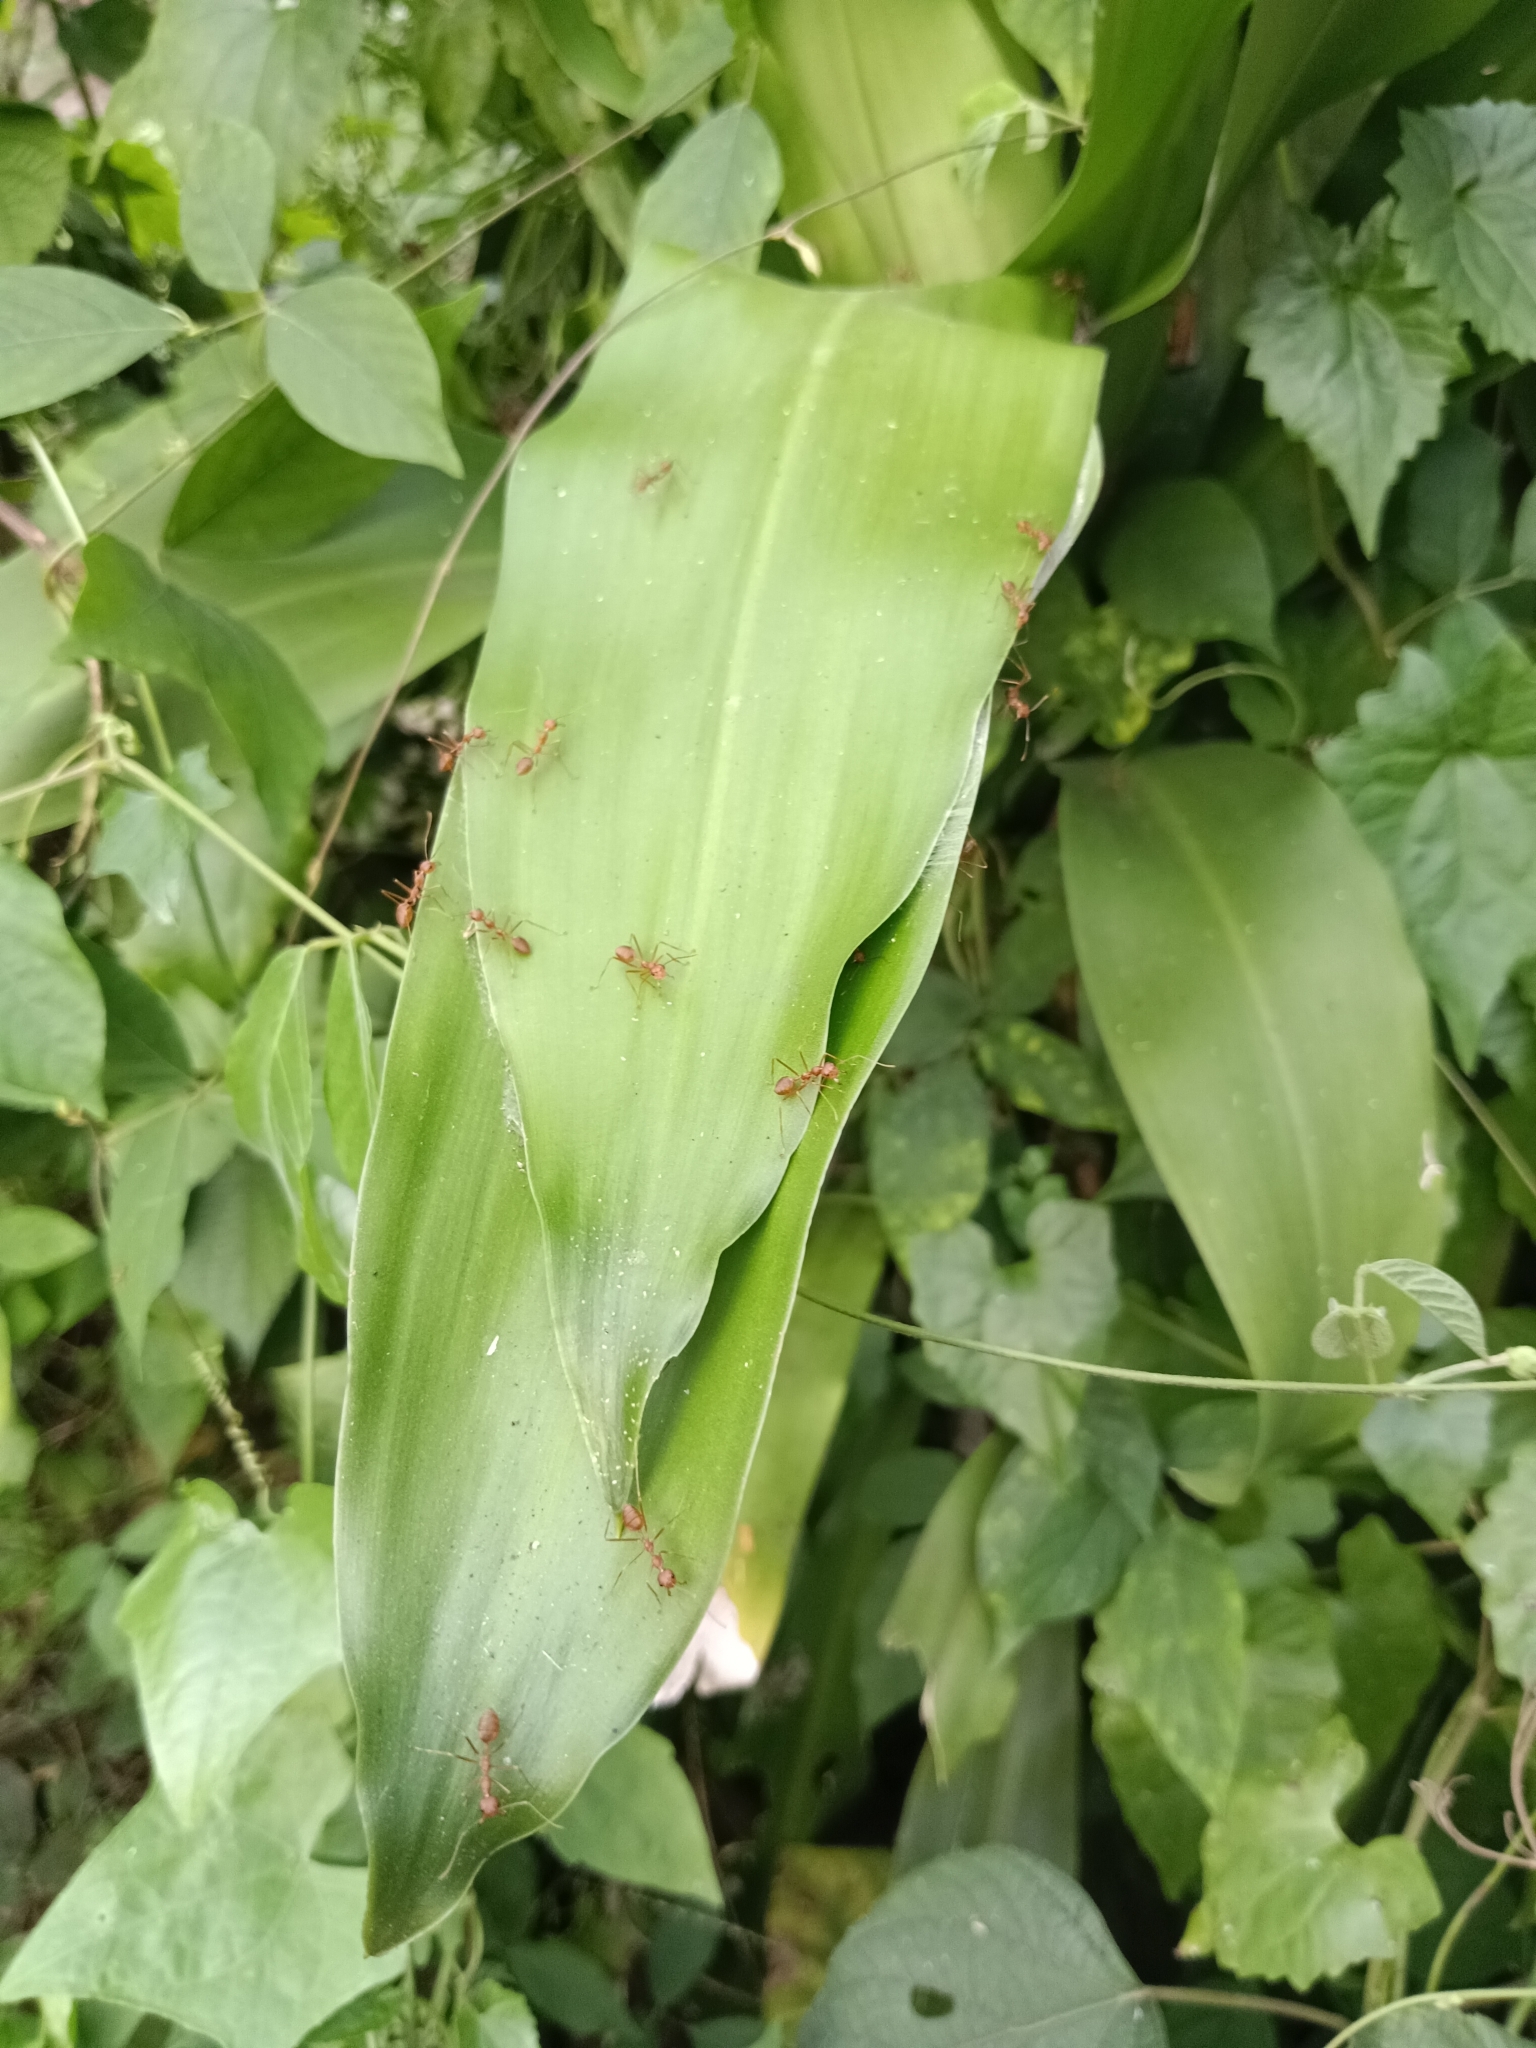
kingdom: Animalia
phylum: Arthropoda
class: Insecta
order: Hymenoptera
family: Formicidae
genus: Oecophylla
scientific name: Oecophylla smaragdina
